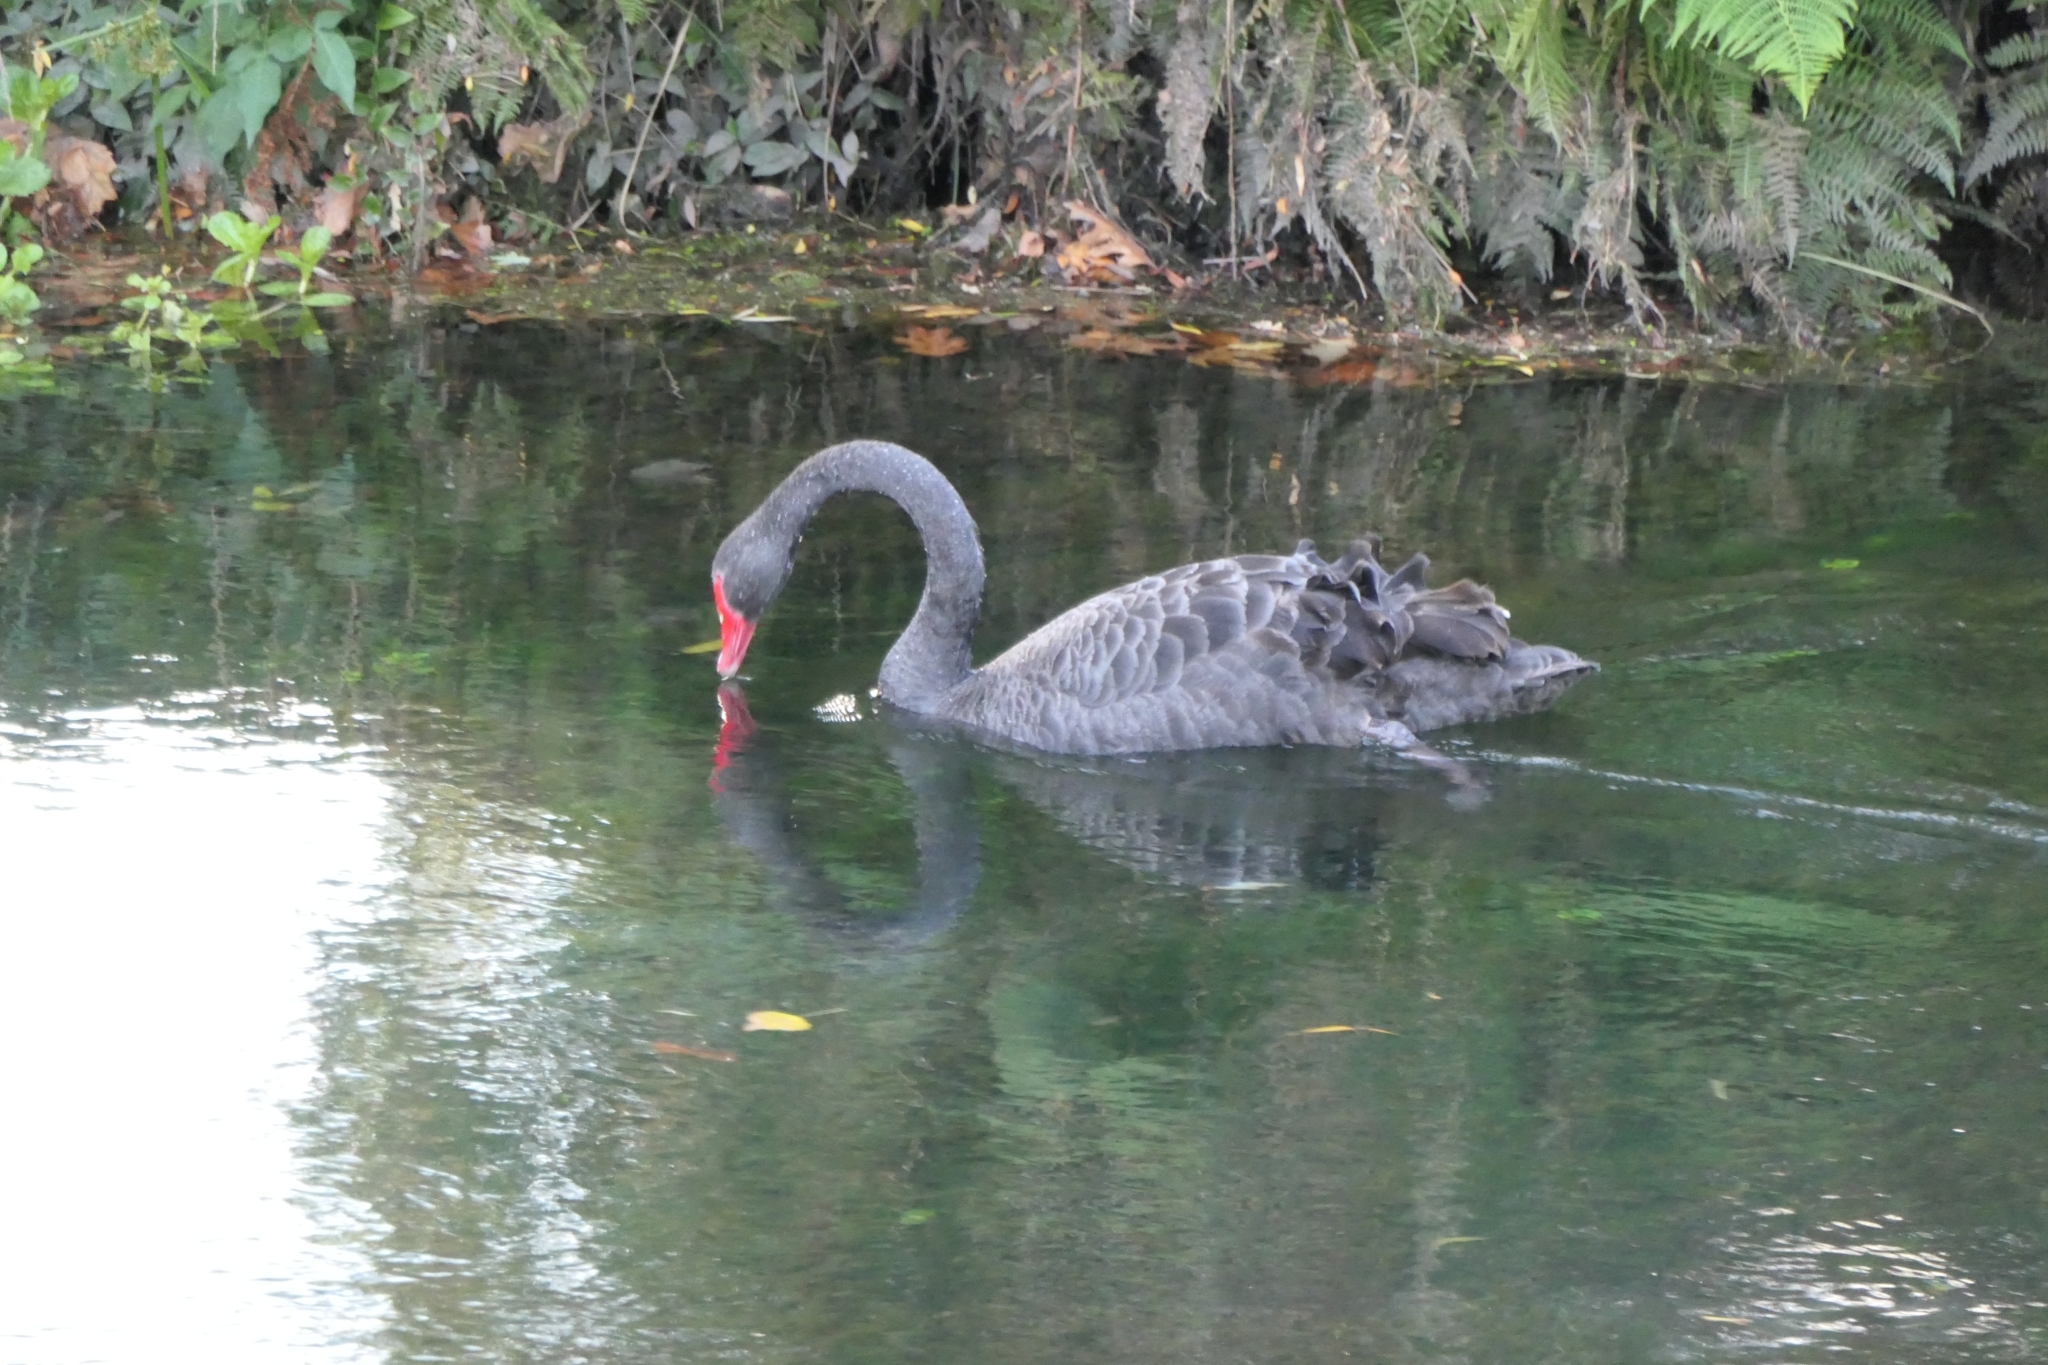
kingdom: Animalia
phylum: Chordata
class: Aves
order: Anseriformes
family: Anatidae
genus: Cygnus
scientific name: Cygnus atratus
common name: Black swan
